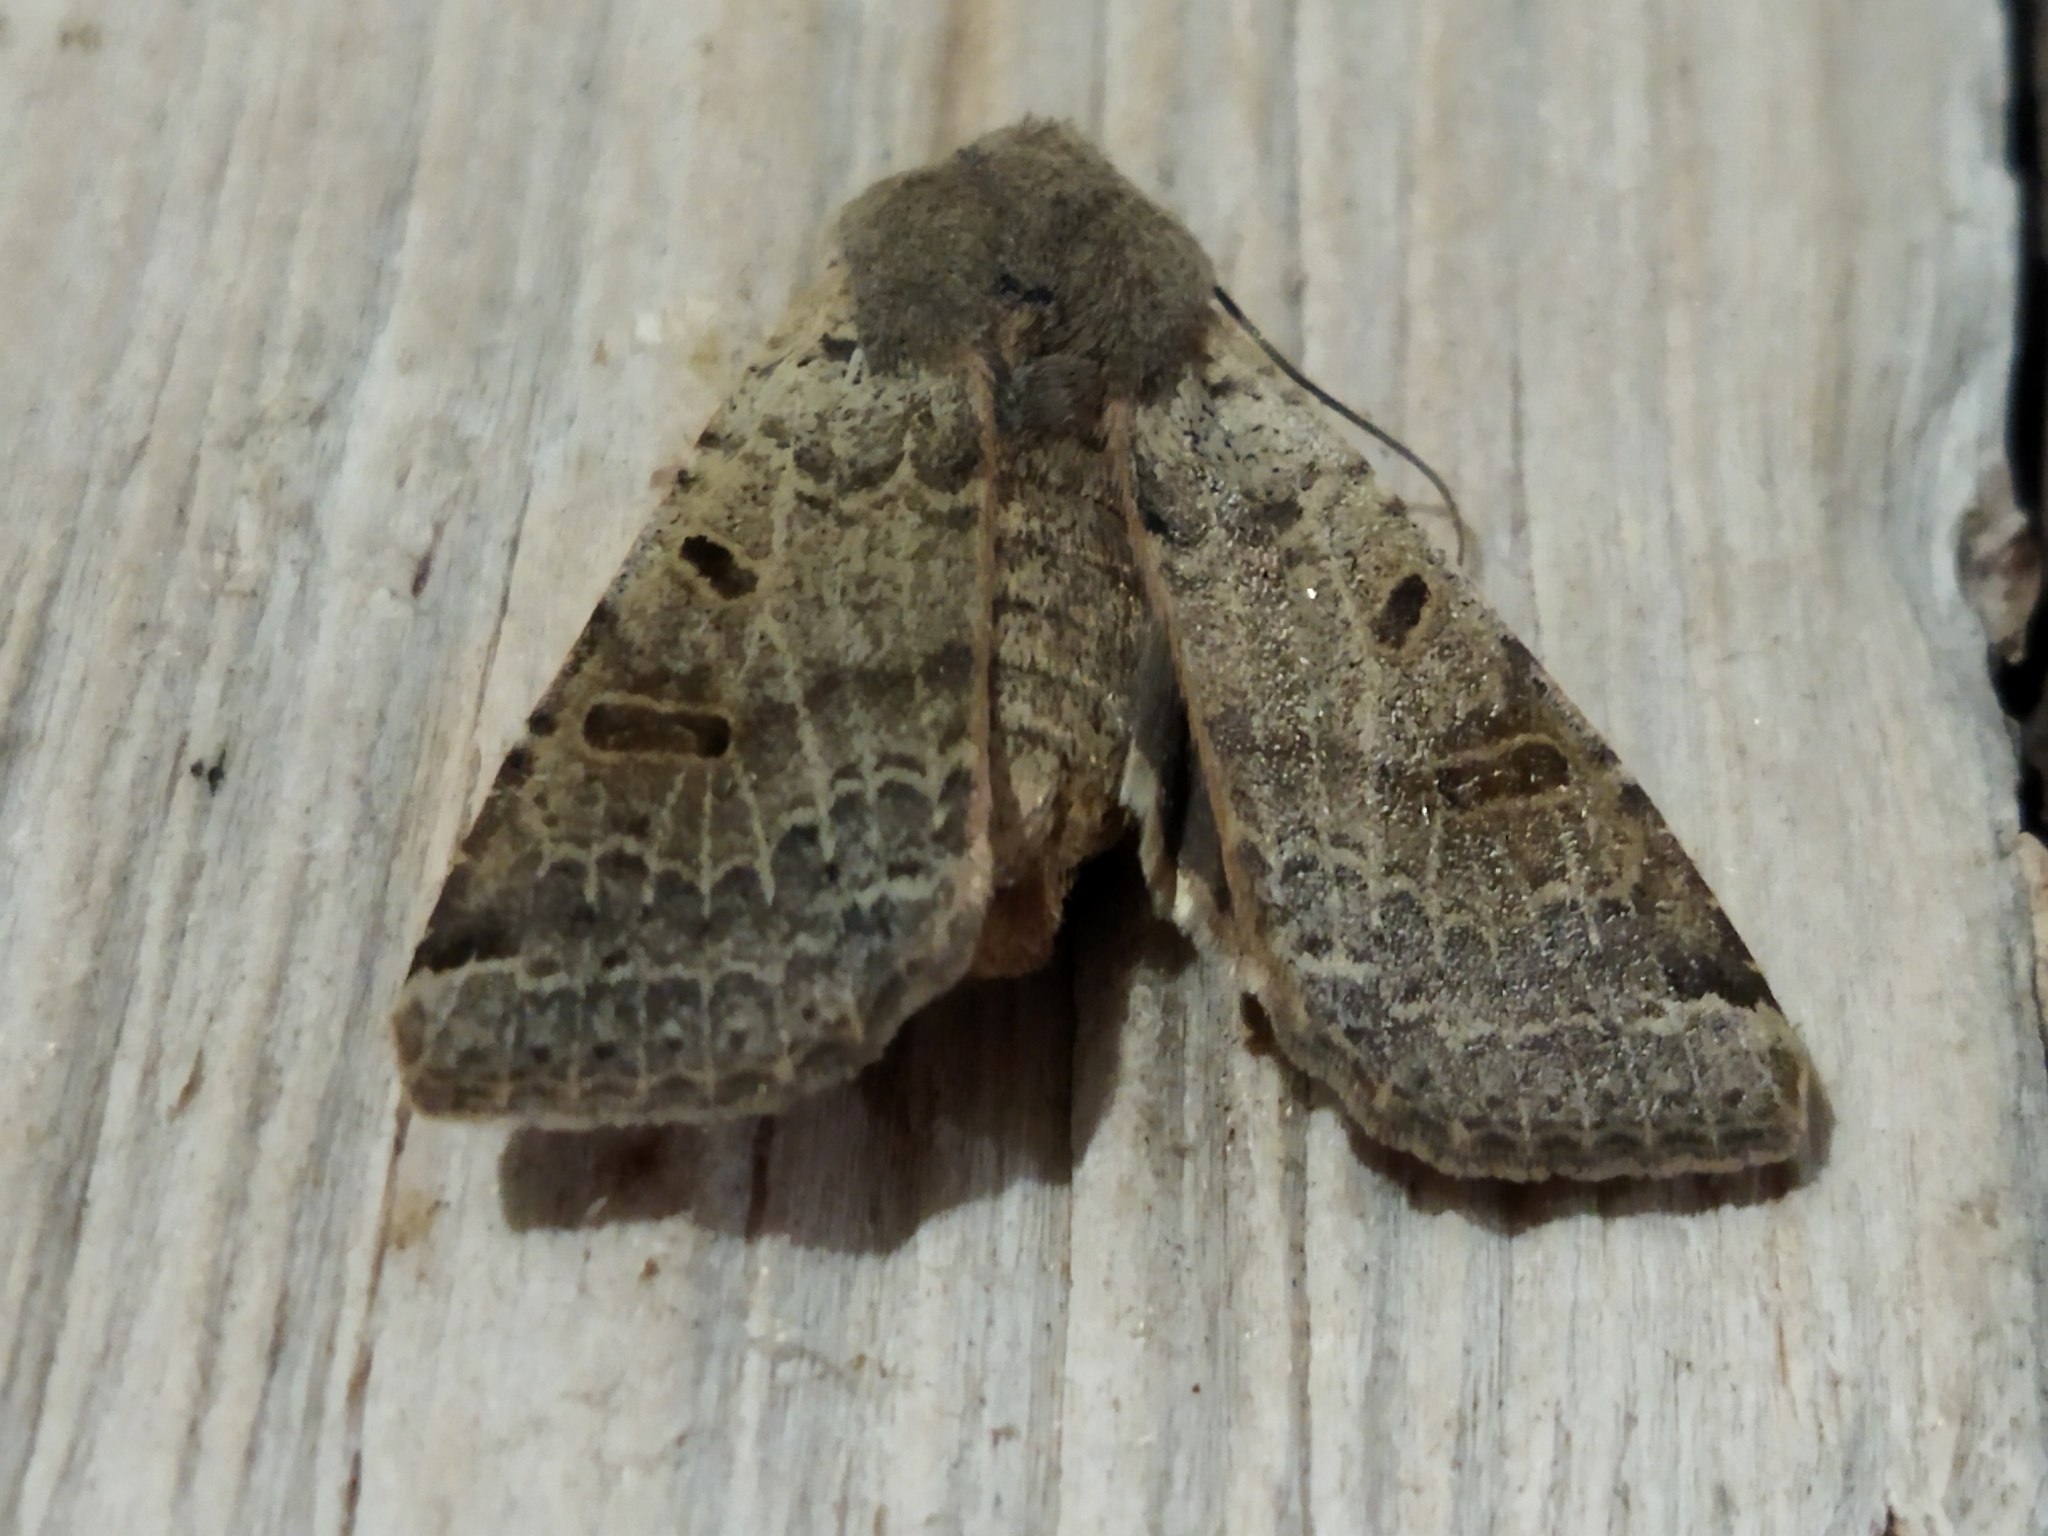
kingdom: Animalia
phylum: Arthropoda
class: Insecta
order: Lepidoptera
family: Noctuidae
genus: Agrochola
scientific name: Agrochola lychnidis
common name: Beaded chestnut
